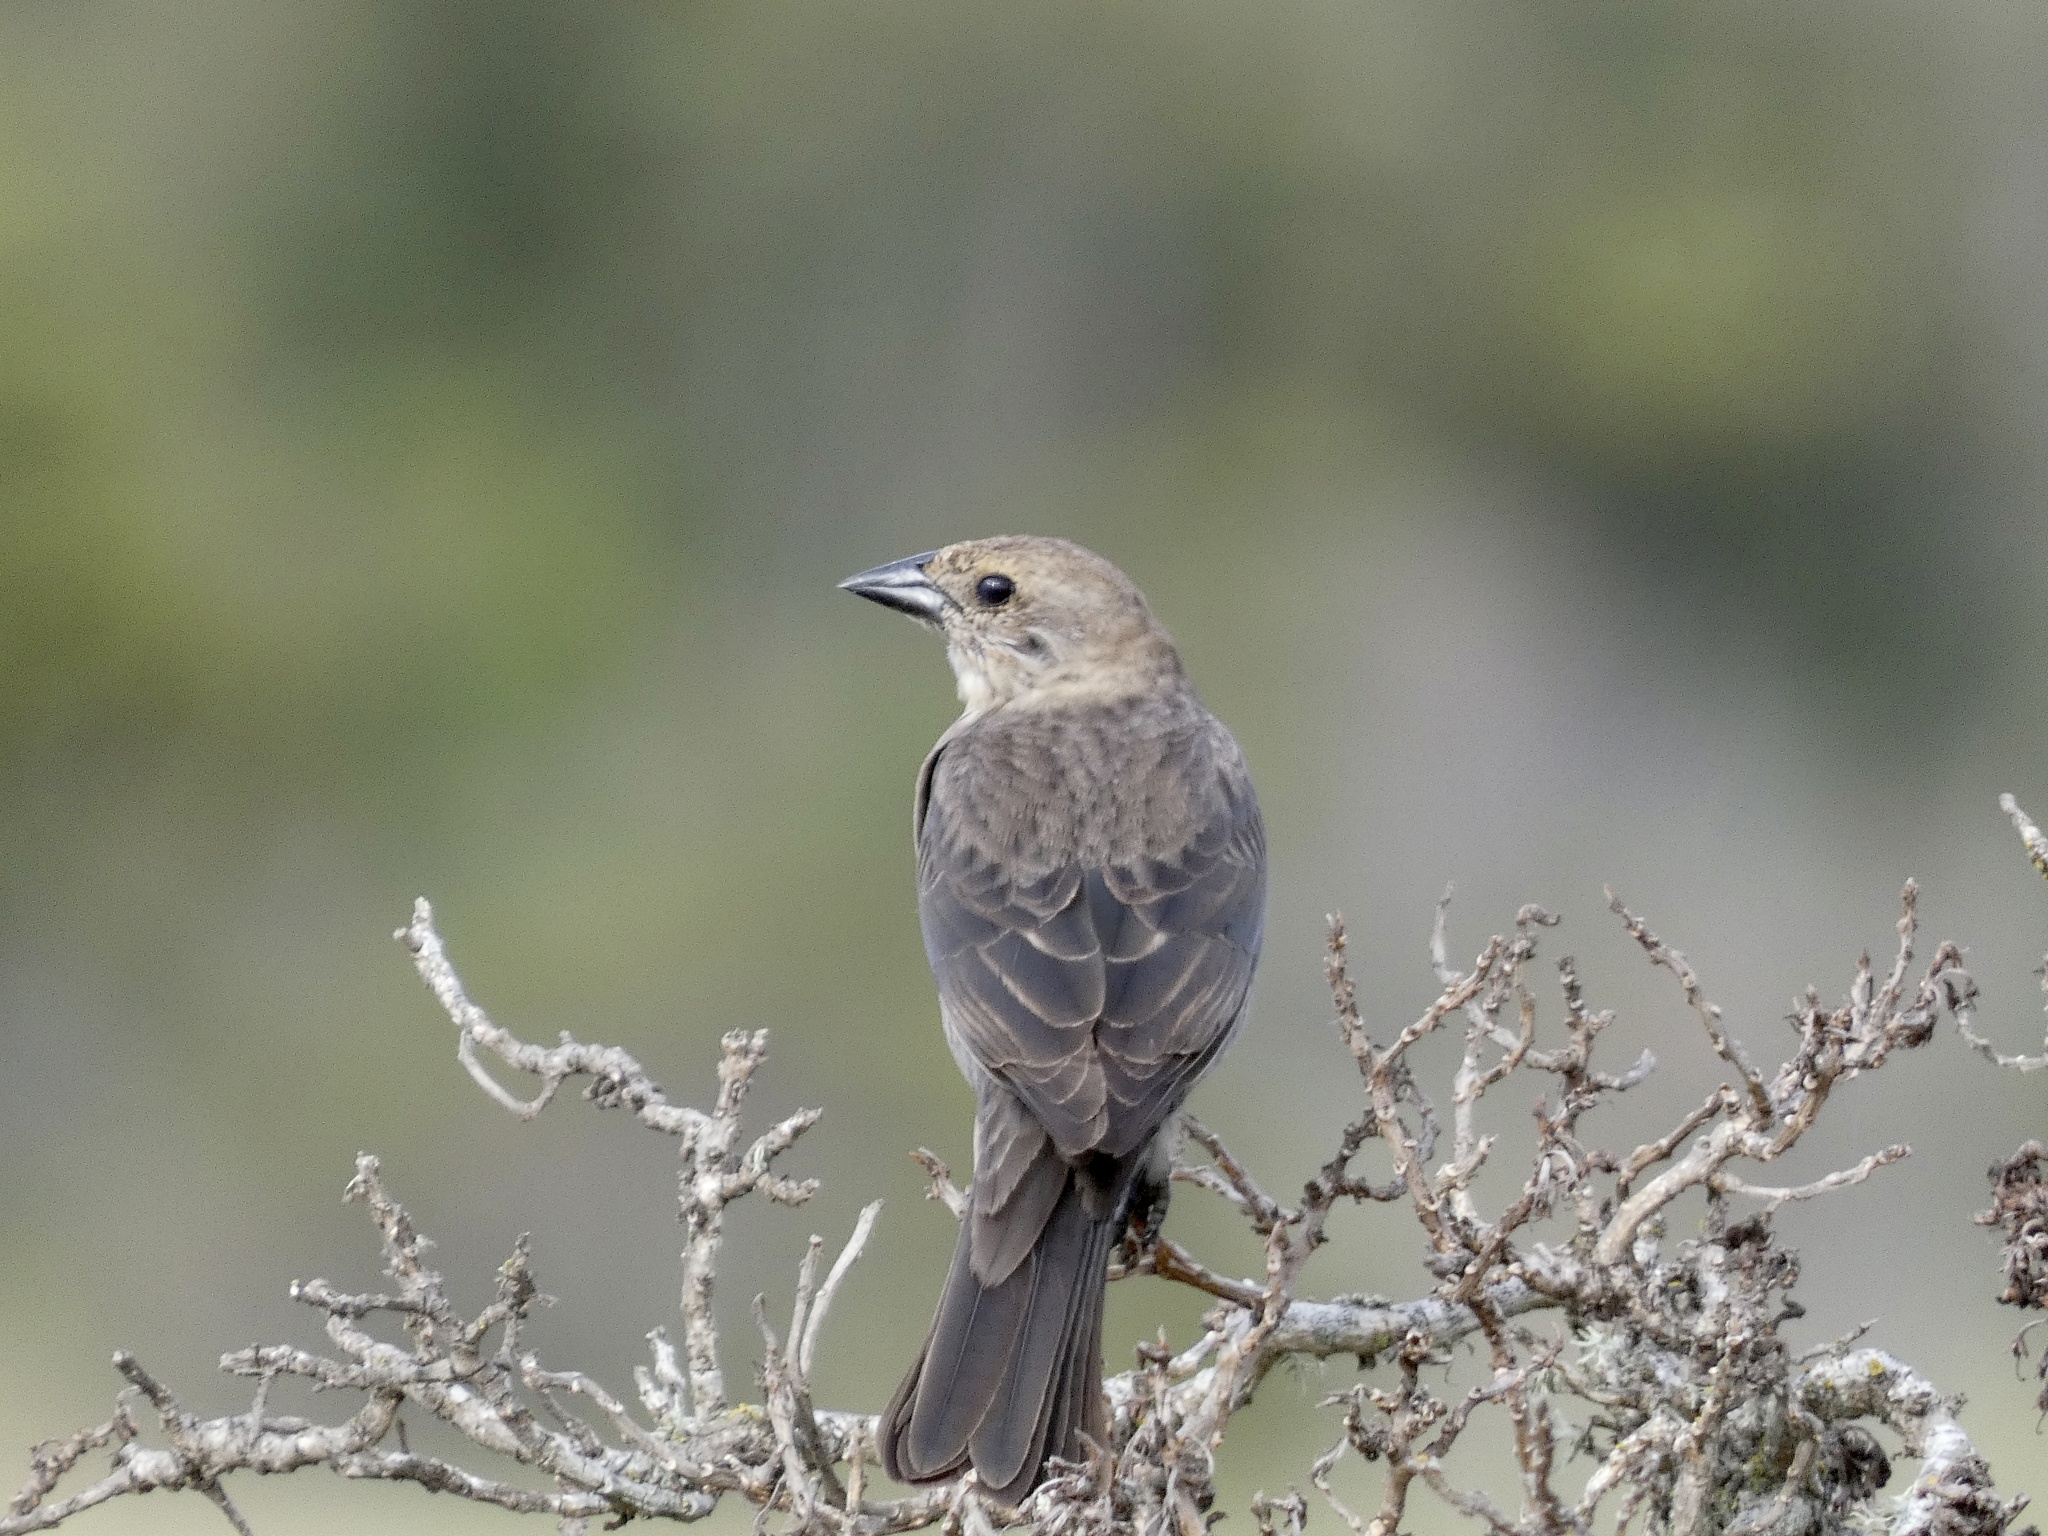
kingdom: Animalia
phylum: Chordata
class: Aves
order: Passeriformes
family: Icteridae
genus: Molothrus
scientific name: Molothrus ater
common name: Brown-headed cowbird
